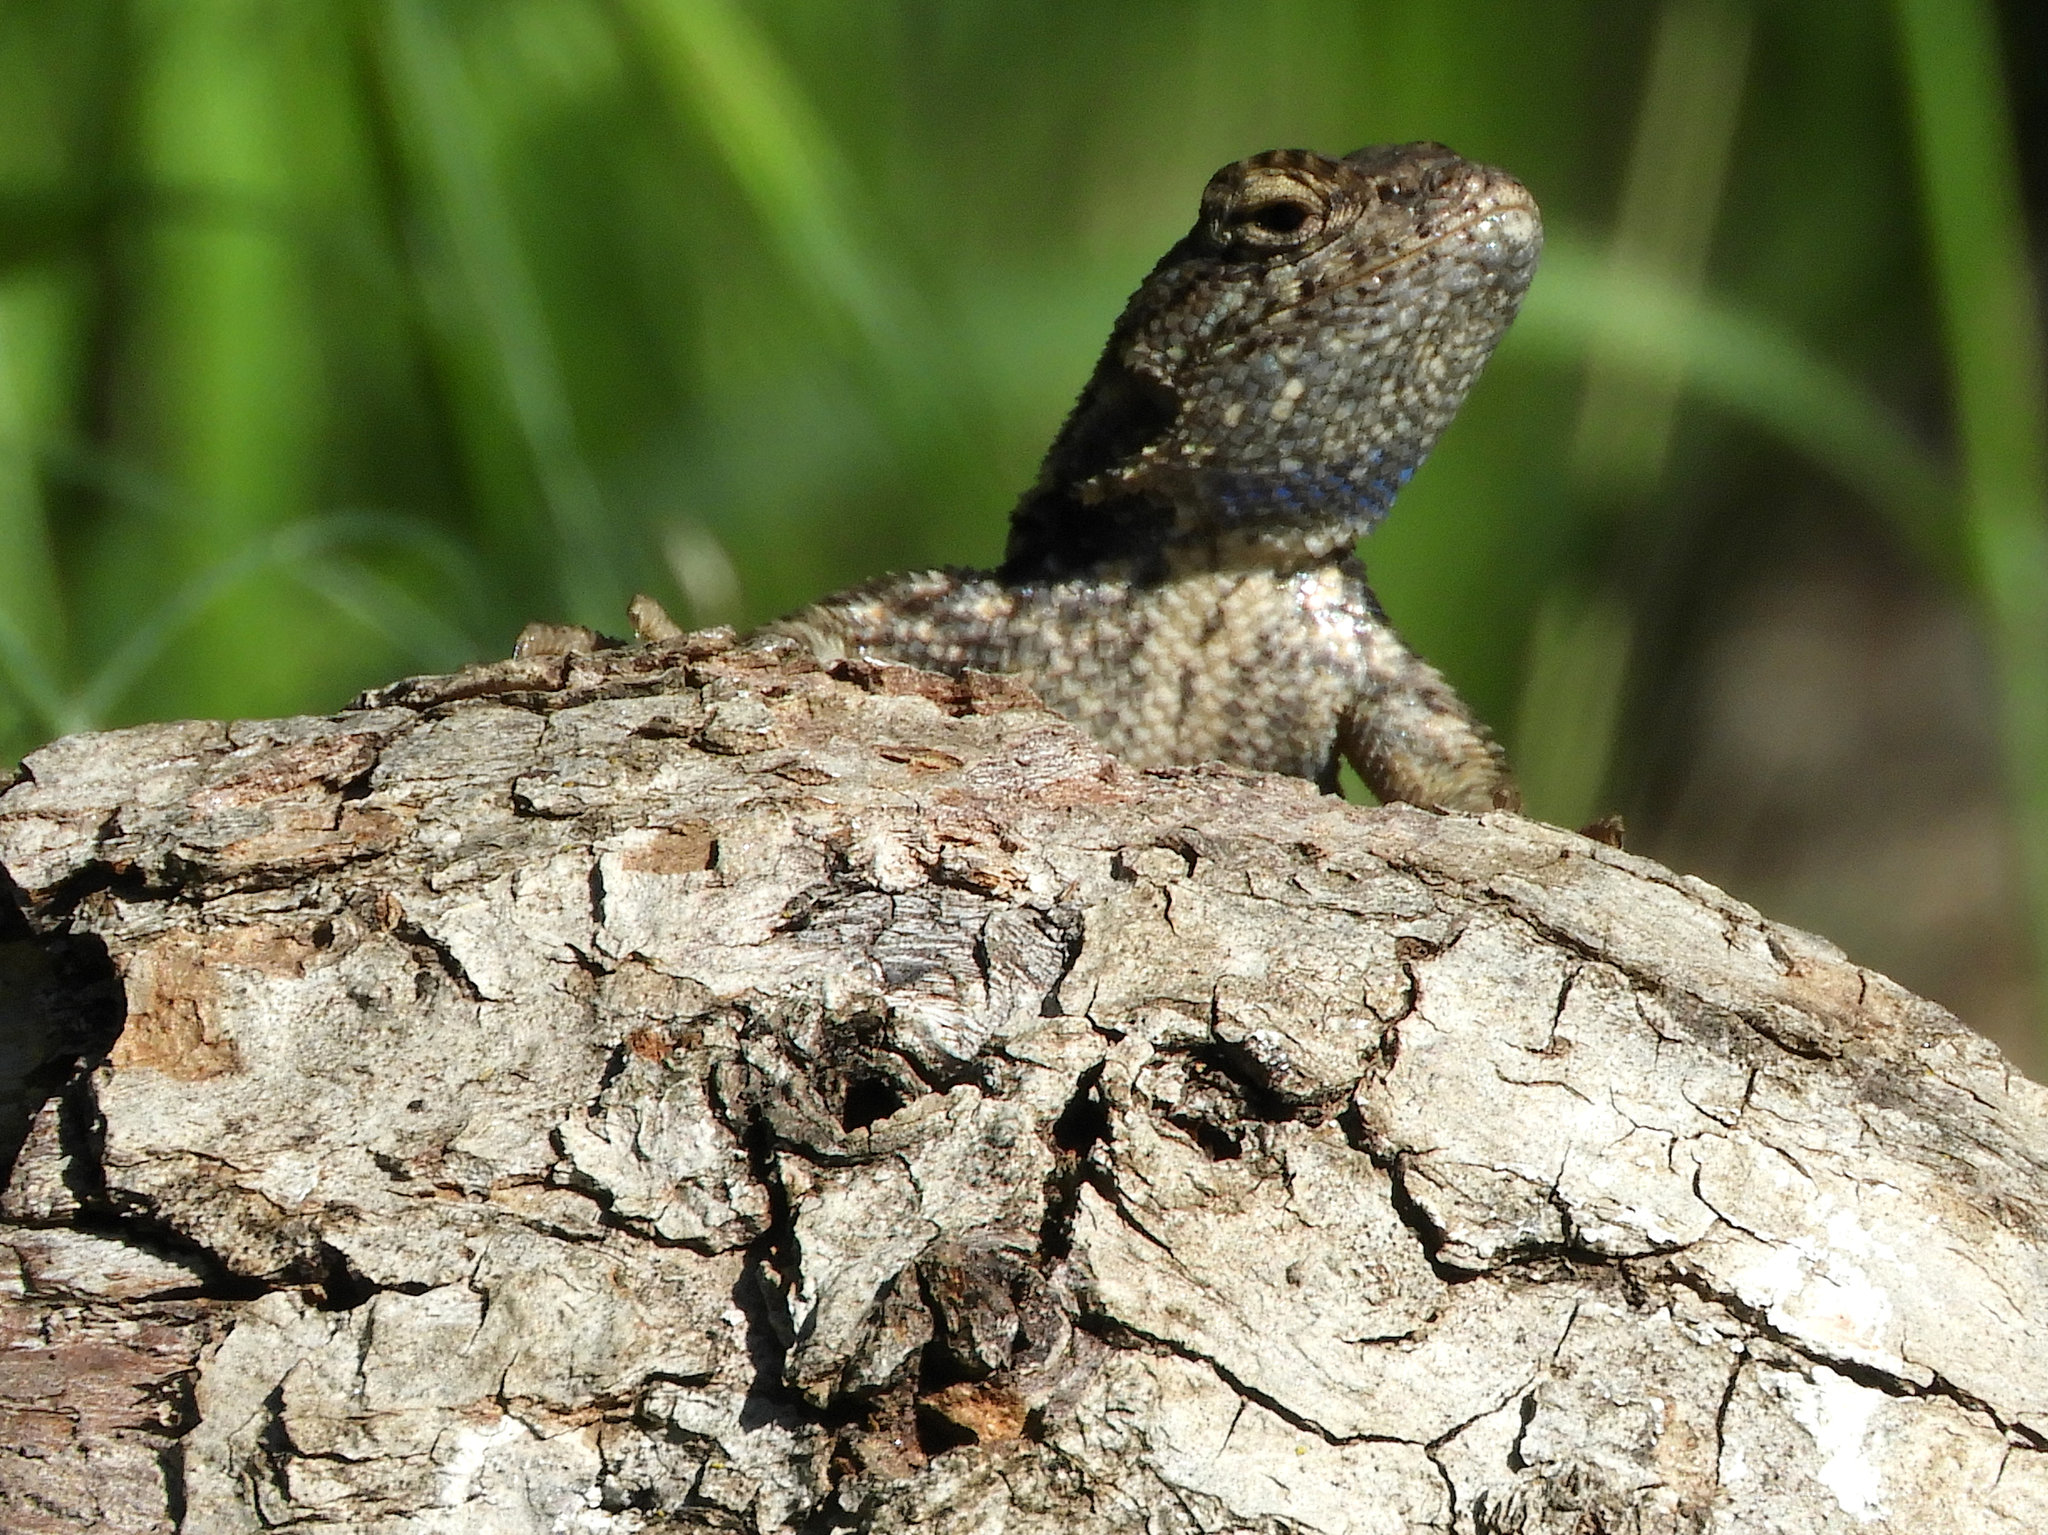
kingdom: Animalia
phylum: Chordata
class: Squamata
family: Phrynosomatidae
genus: Sceloporus
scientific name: Sceloporus occidentalis
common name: Western fence lizard
